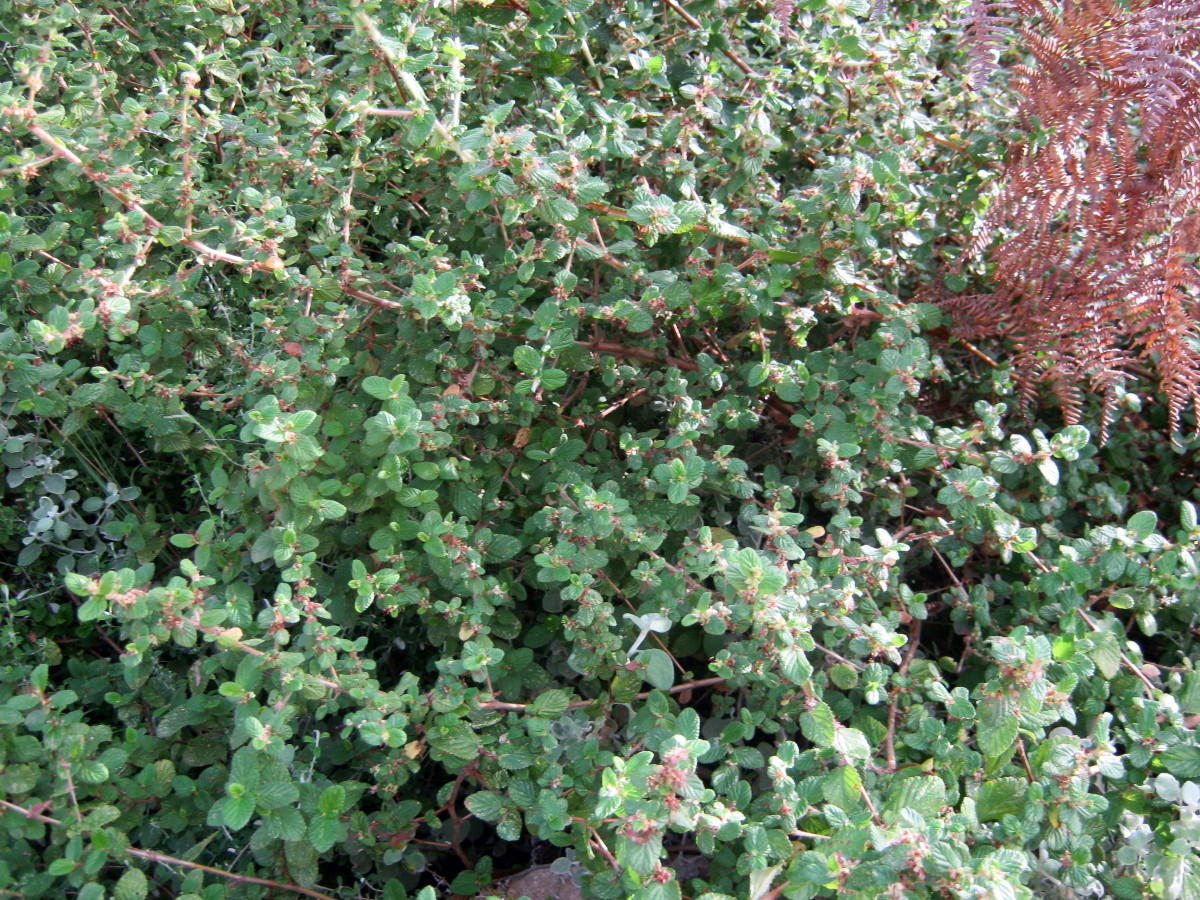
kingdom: Plantae
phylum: Tracheophyta
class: Magnoliopsida
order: Rosales
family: Rosaceae
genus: Cliffortia
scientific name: Cliffortia odorata
